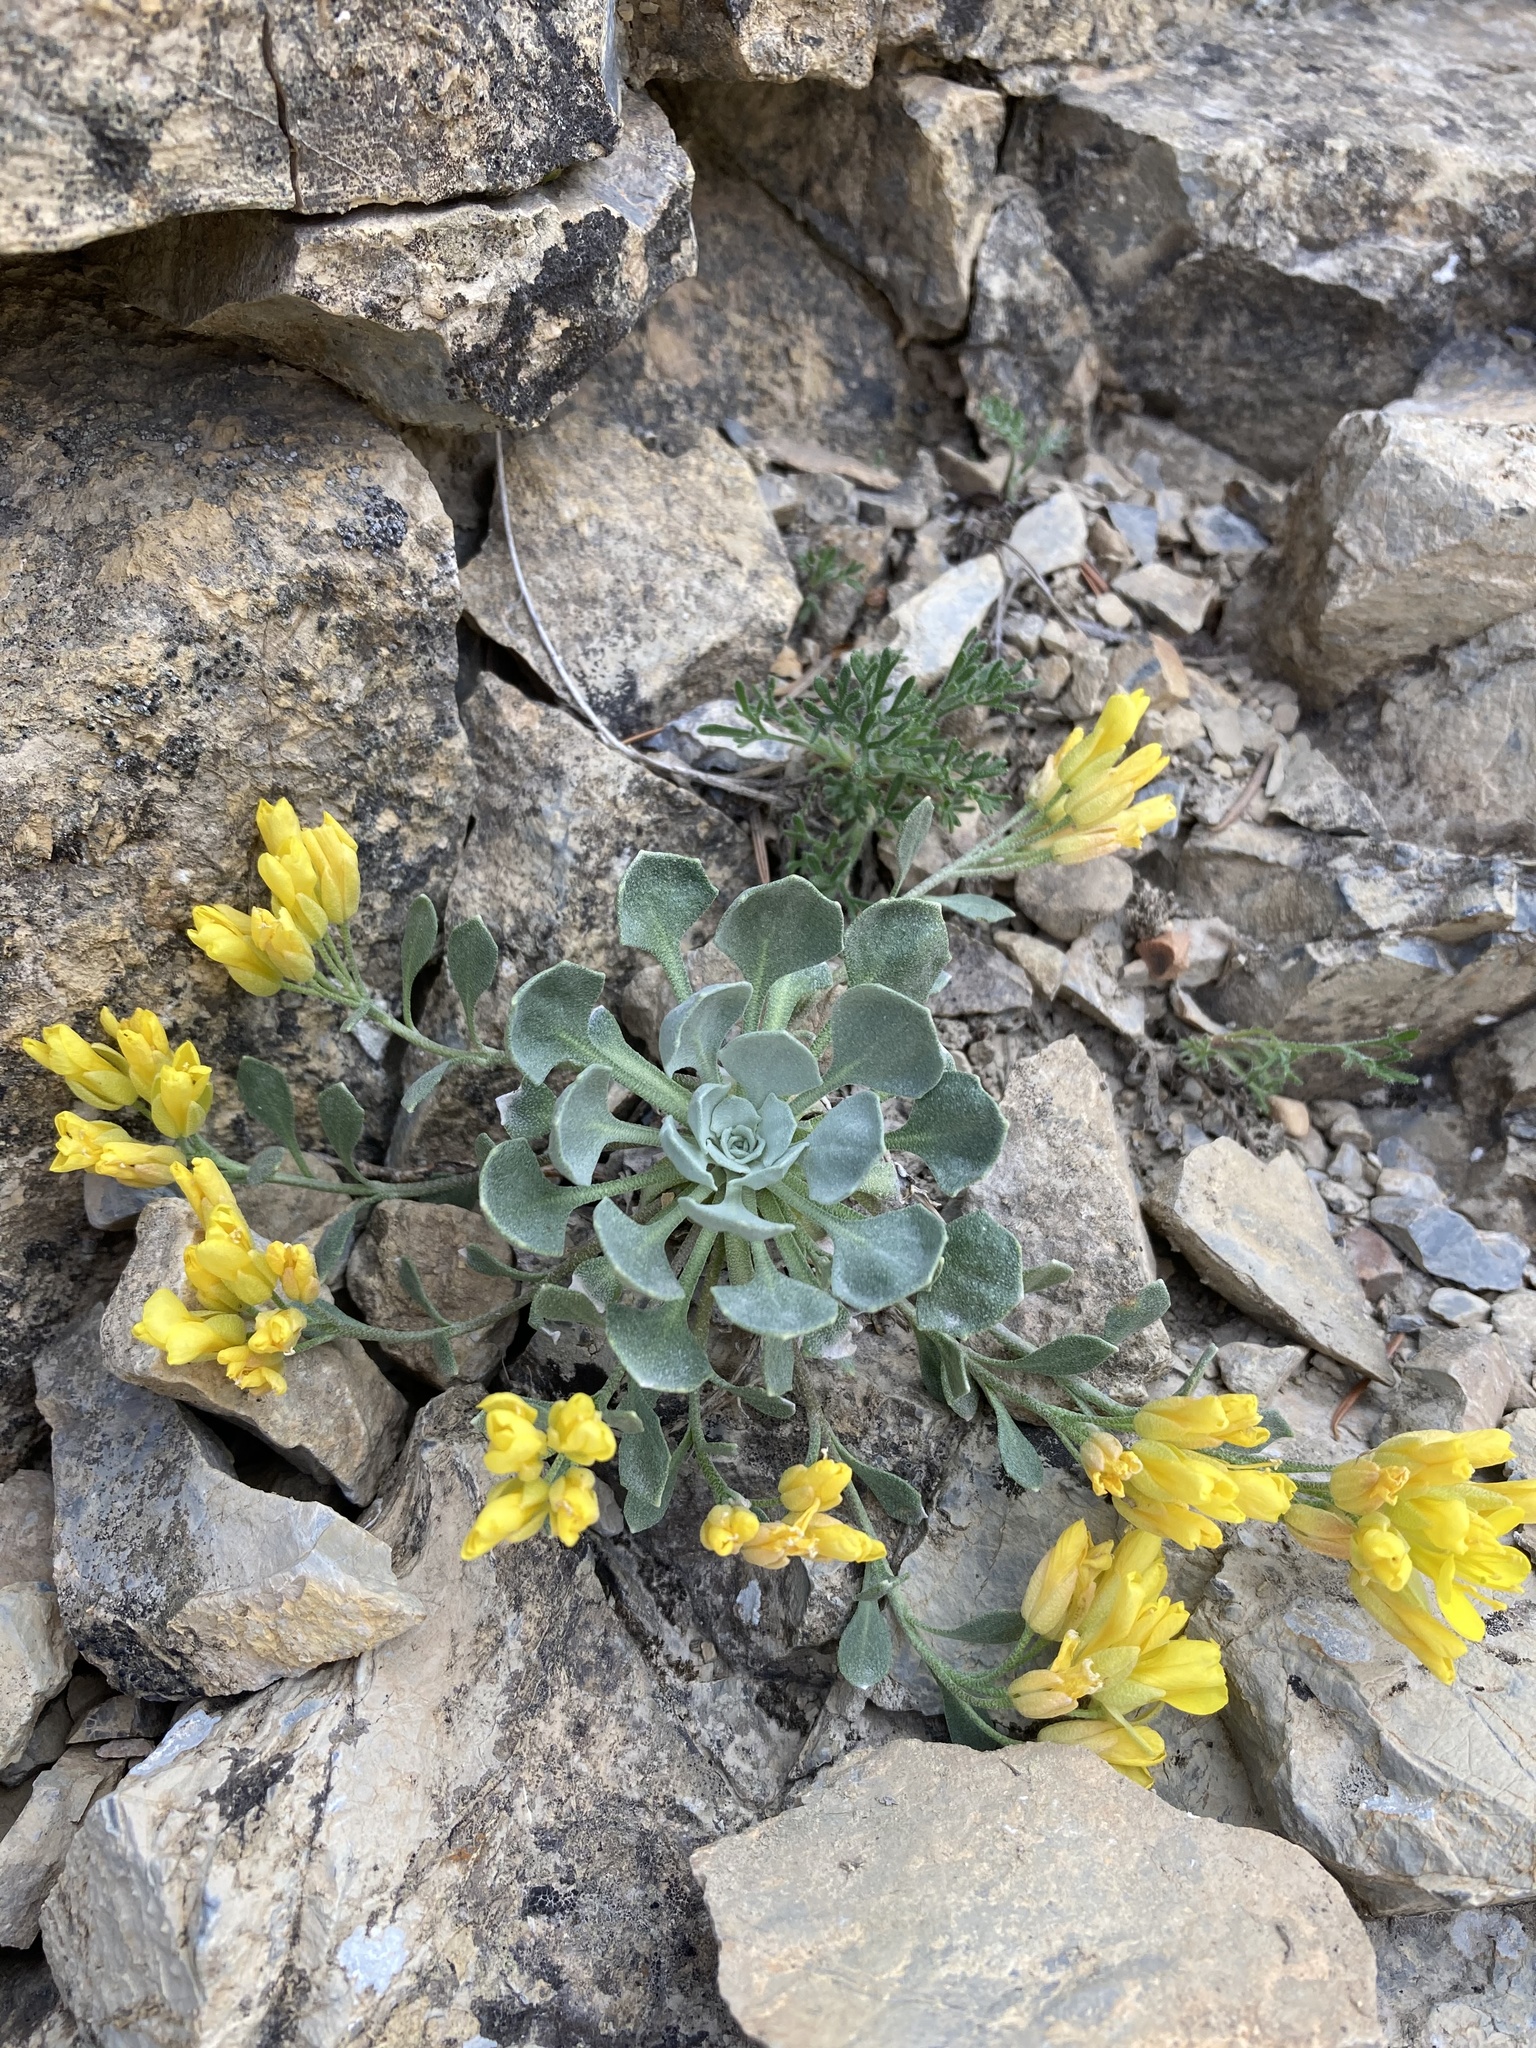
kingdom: Plantae
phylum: Tracheophyta
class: Magnoliopsida
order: Brassicales
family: Brassicaceae
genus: Physaria
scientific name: Physaria didymocarpa
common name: Common twinpod
